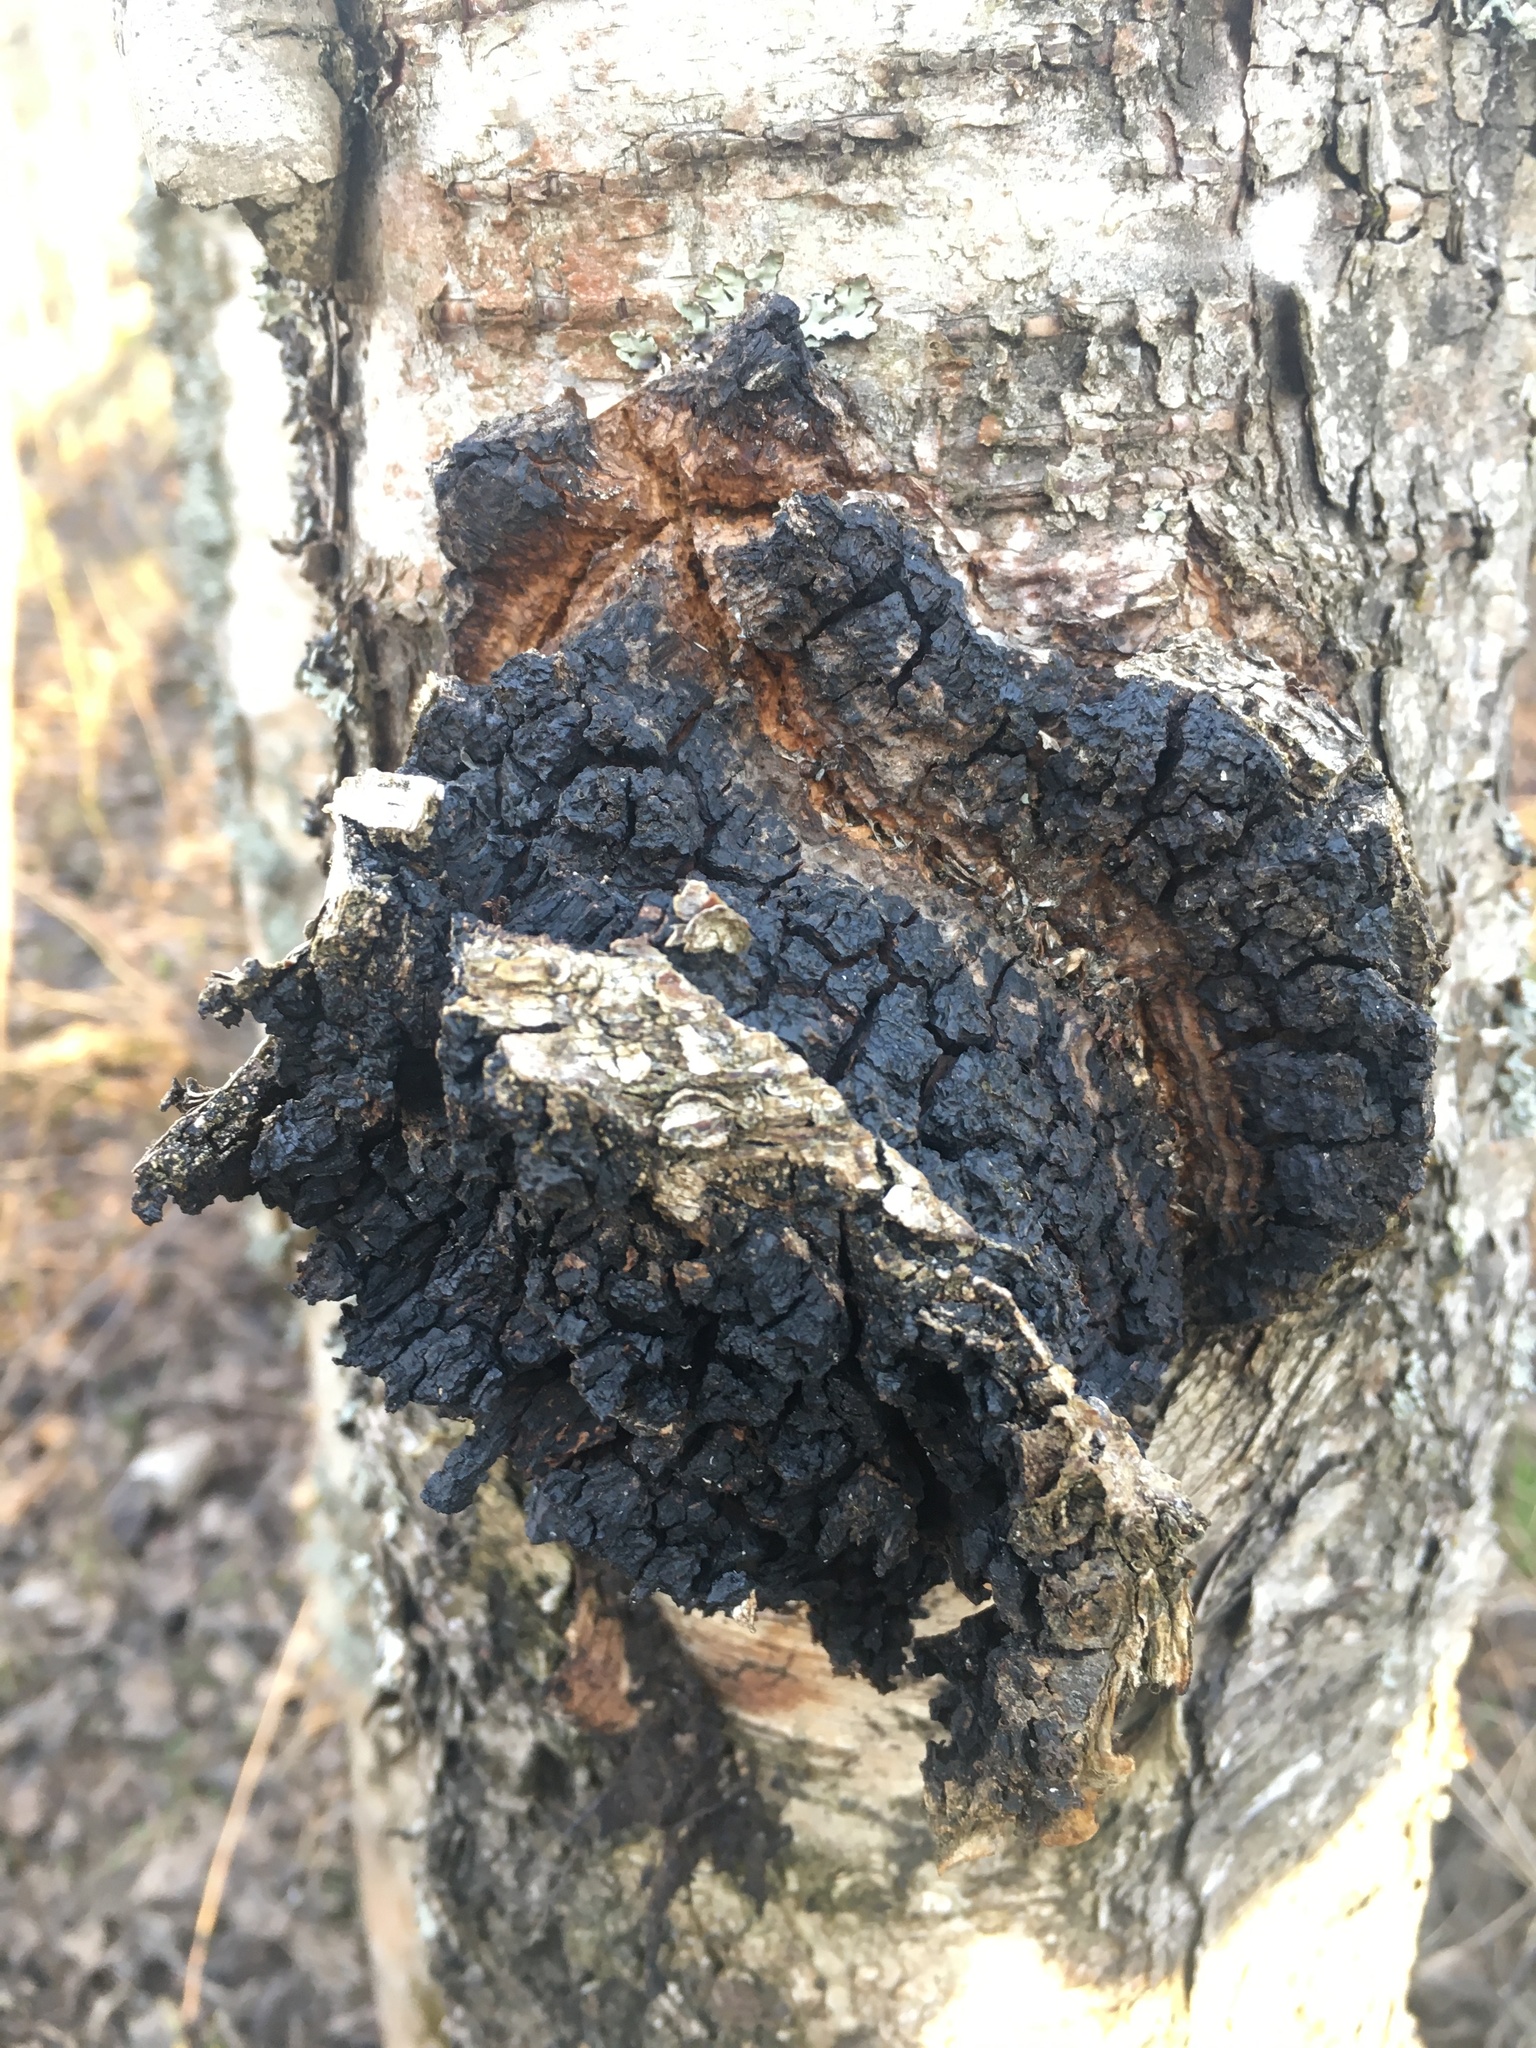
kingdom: Fungi
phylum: Basidiomycota
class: Agaricomycetes
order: Hymenochaetales
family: Hymenochaetaceae
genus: Inonotus
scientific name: Inonotus obliquus
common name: Chaga
